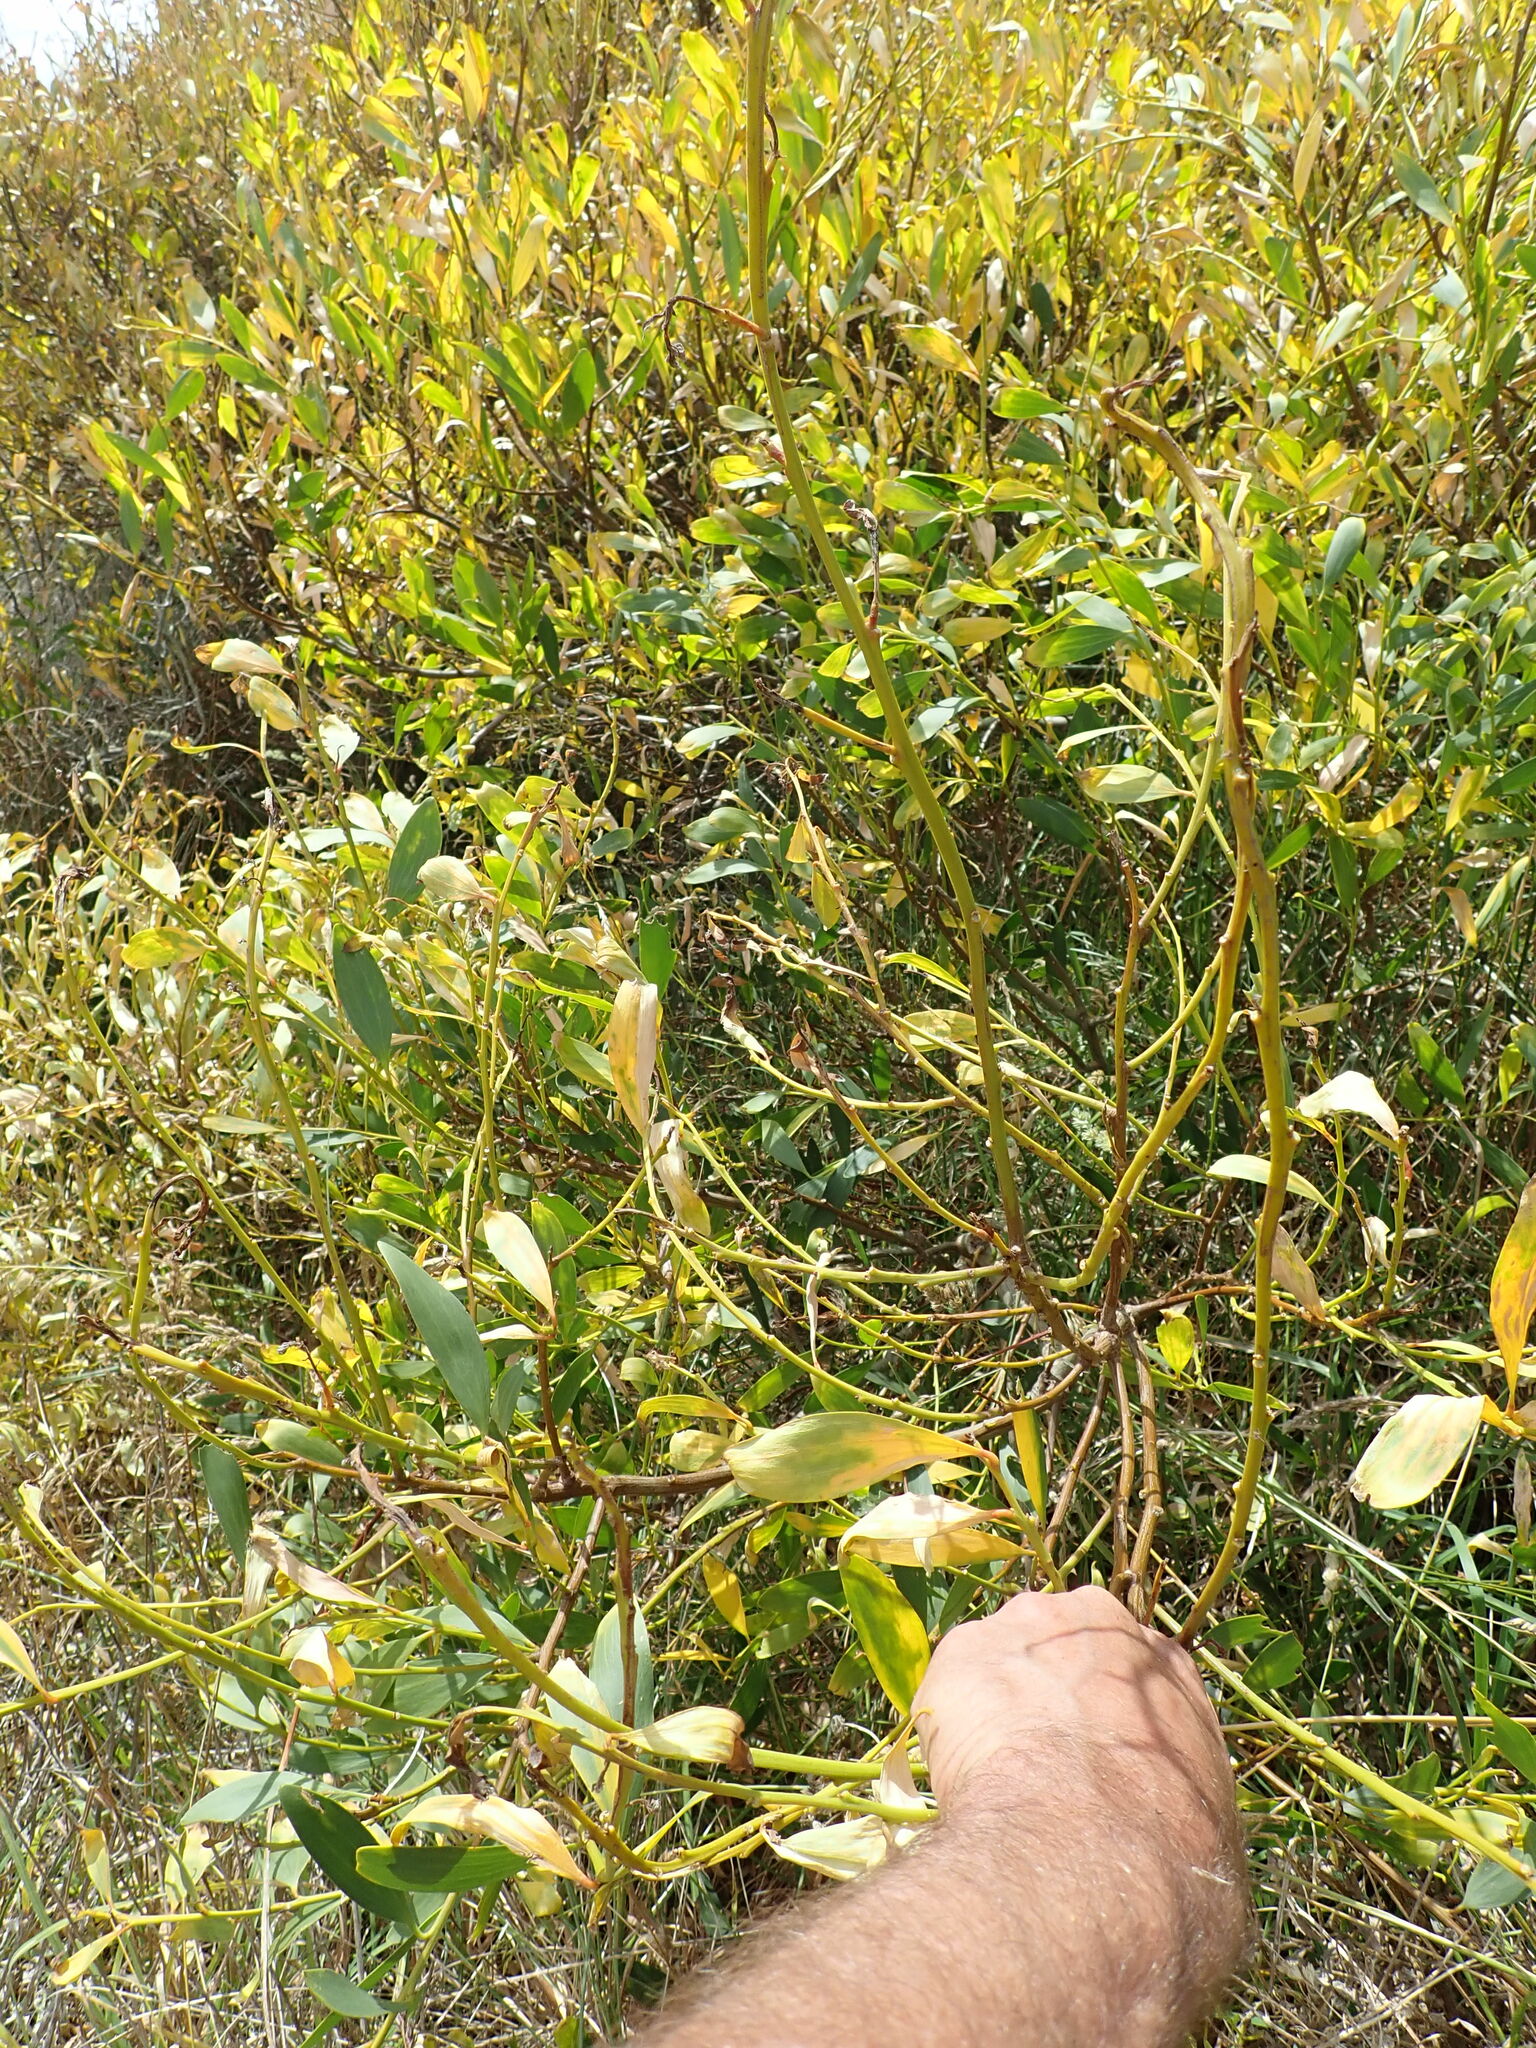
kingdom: Plantae
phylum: Tracheophyta
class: Magnoliopsida
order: Fabales
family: Fabaceae
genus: Acacia
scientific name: Acacia longifolia
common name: Sydney golden wattle
